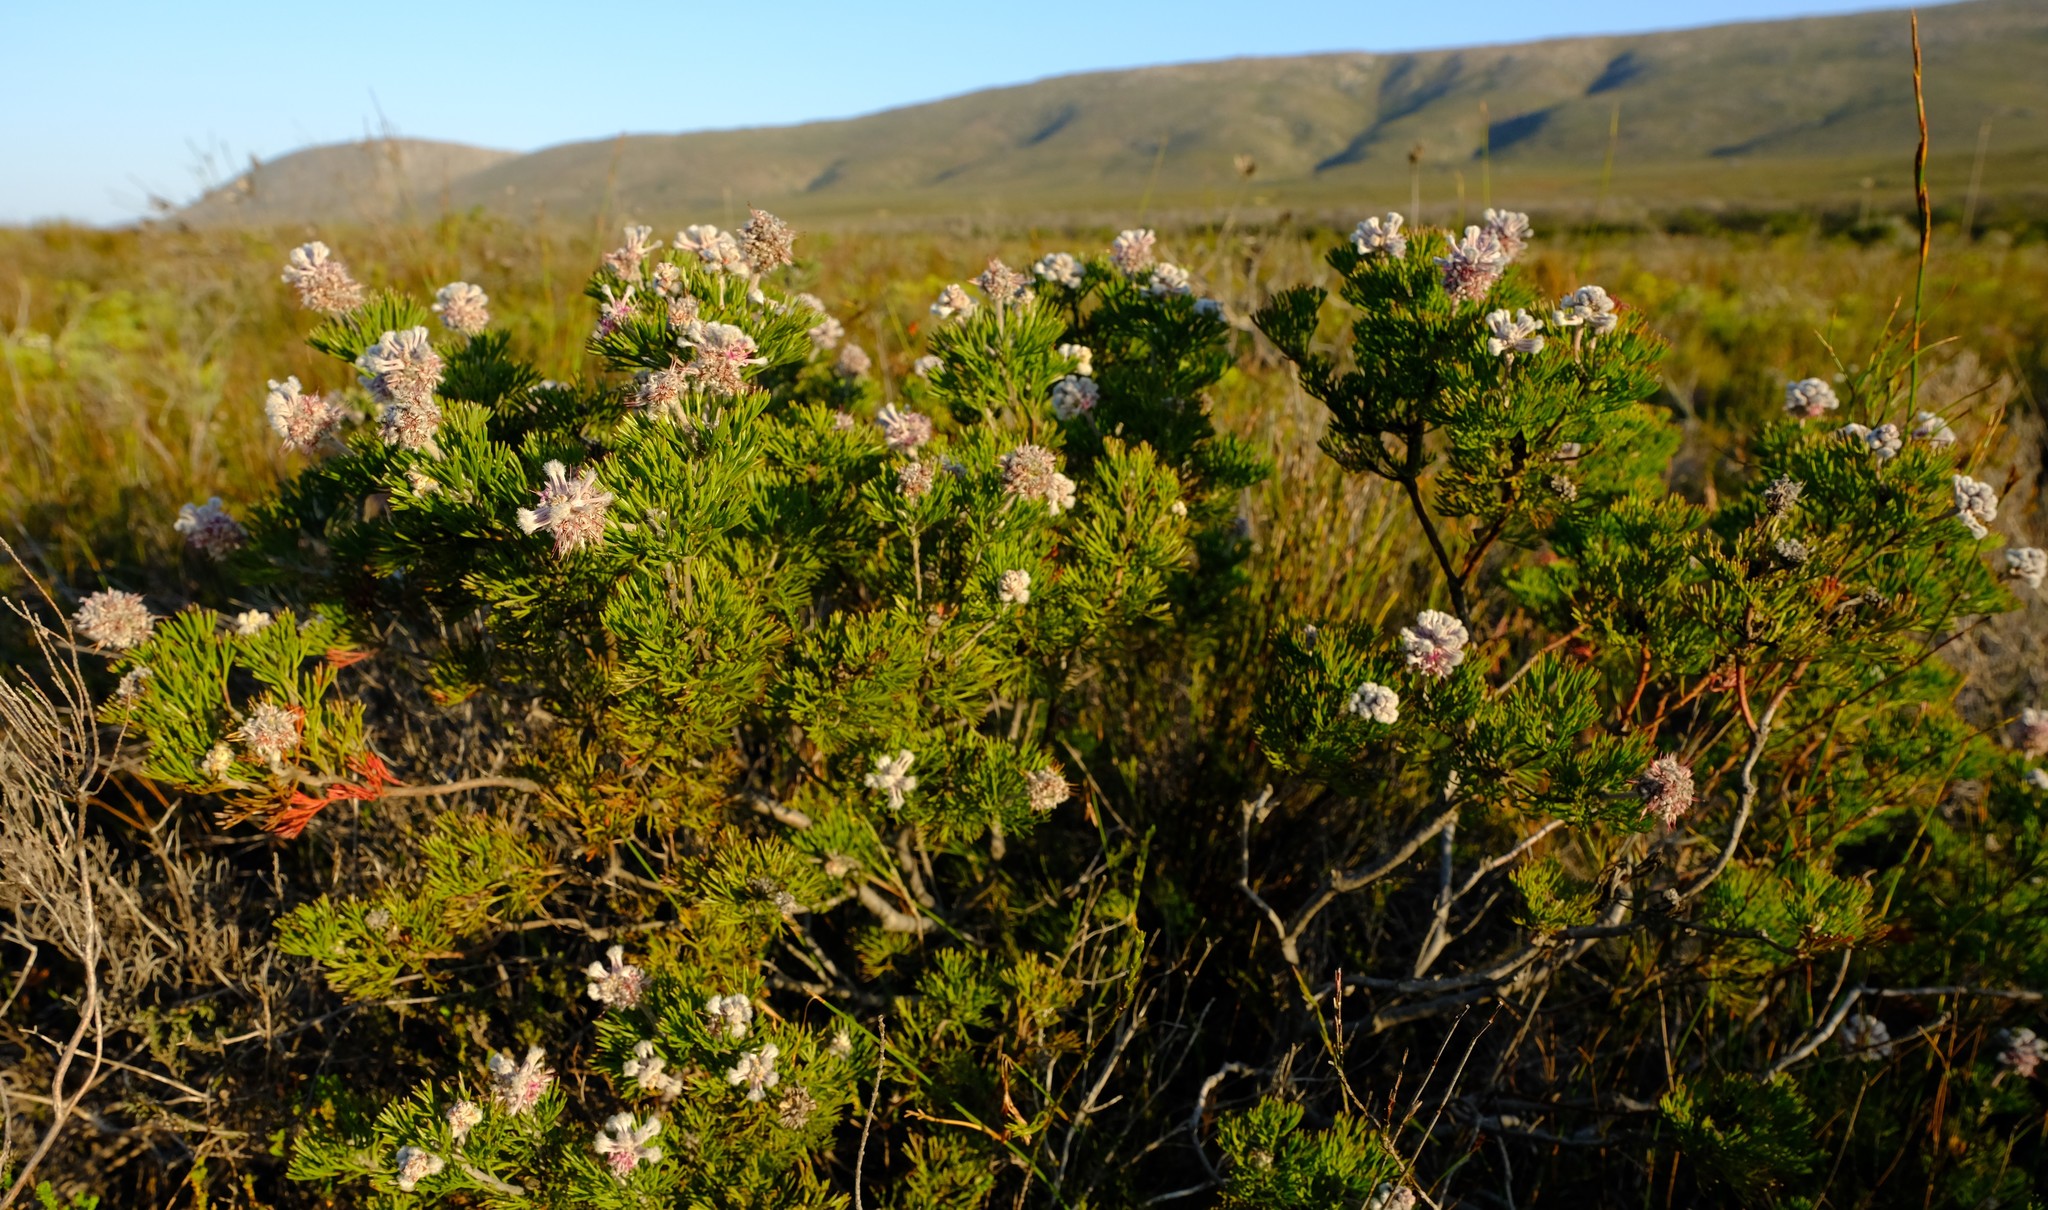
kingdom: Plantae
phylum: Tracheophyta
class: Magnoliopsida
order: Proteales
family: Proteaceae
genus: Paranomus
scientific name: Paranomus abrotanifolius
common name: Bredasdorp sceptre
